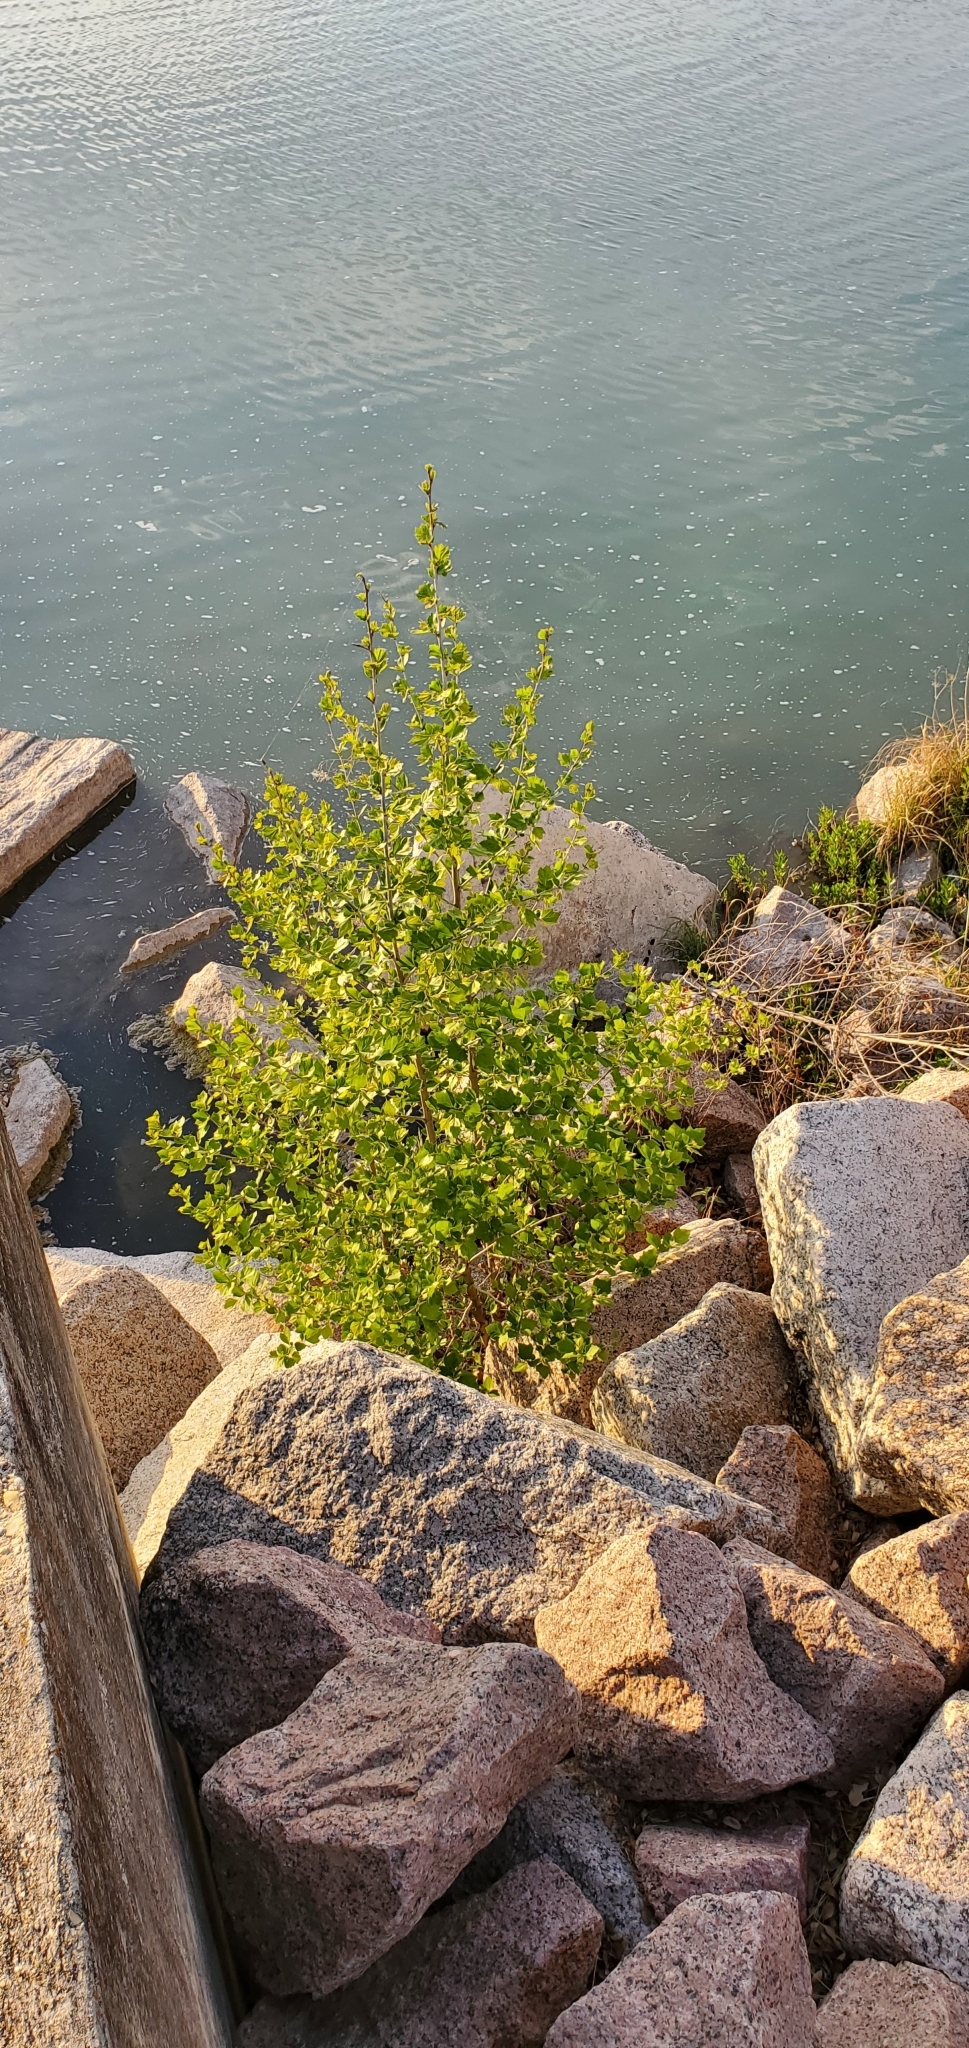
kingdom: Plantae
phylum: Tracheophyta
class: Magnoliopsida
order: Proteales
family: Platanaceae
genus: Platanus
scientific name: Platanus occidentalis
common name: American sycamore
